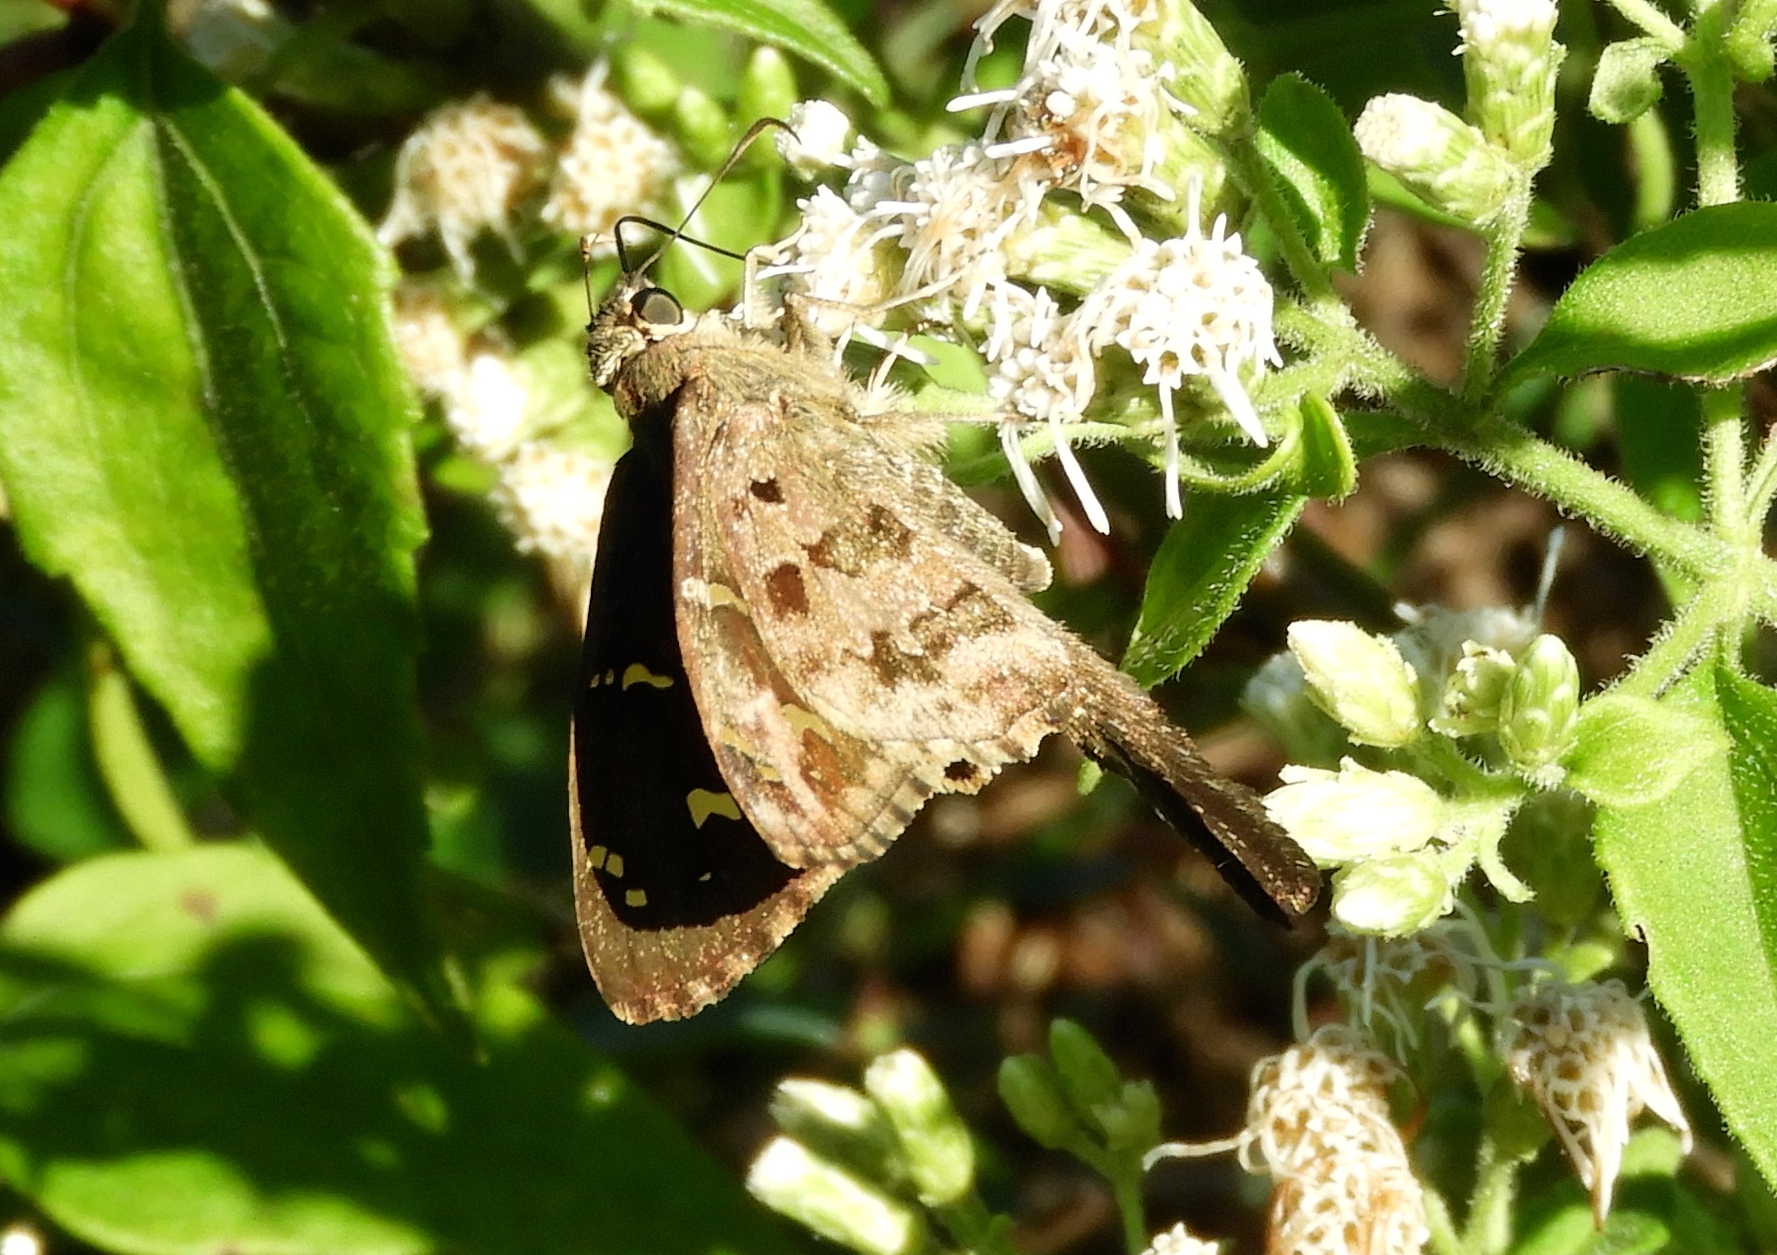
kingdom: Animalia
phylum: Arthropoda
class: Insecta
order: Lepidoptera
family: Hesperiidae
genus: Thorybes
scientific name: Thorybes
